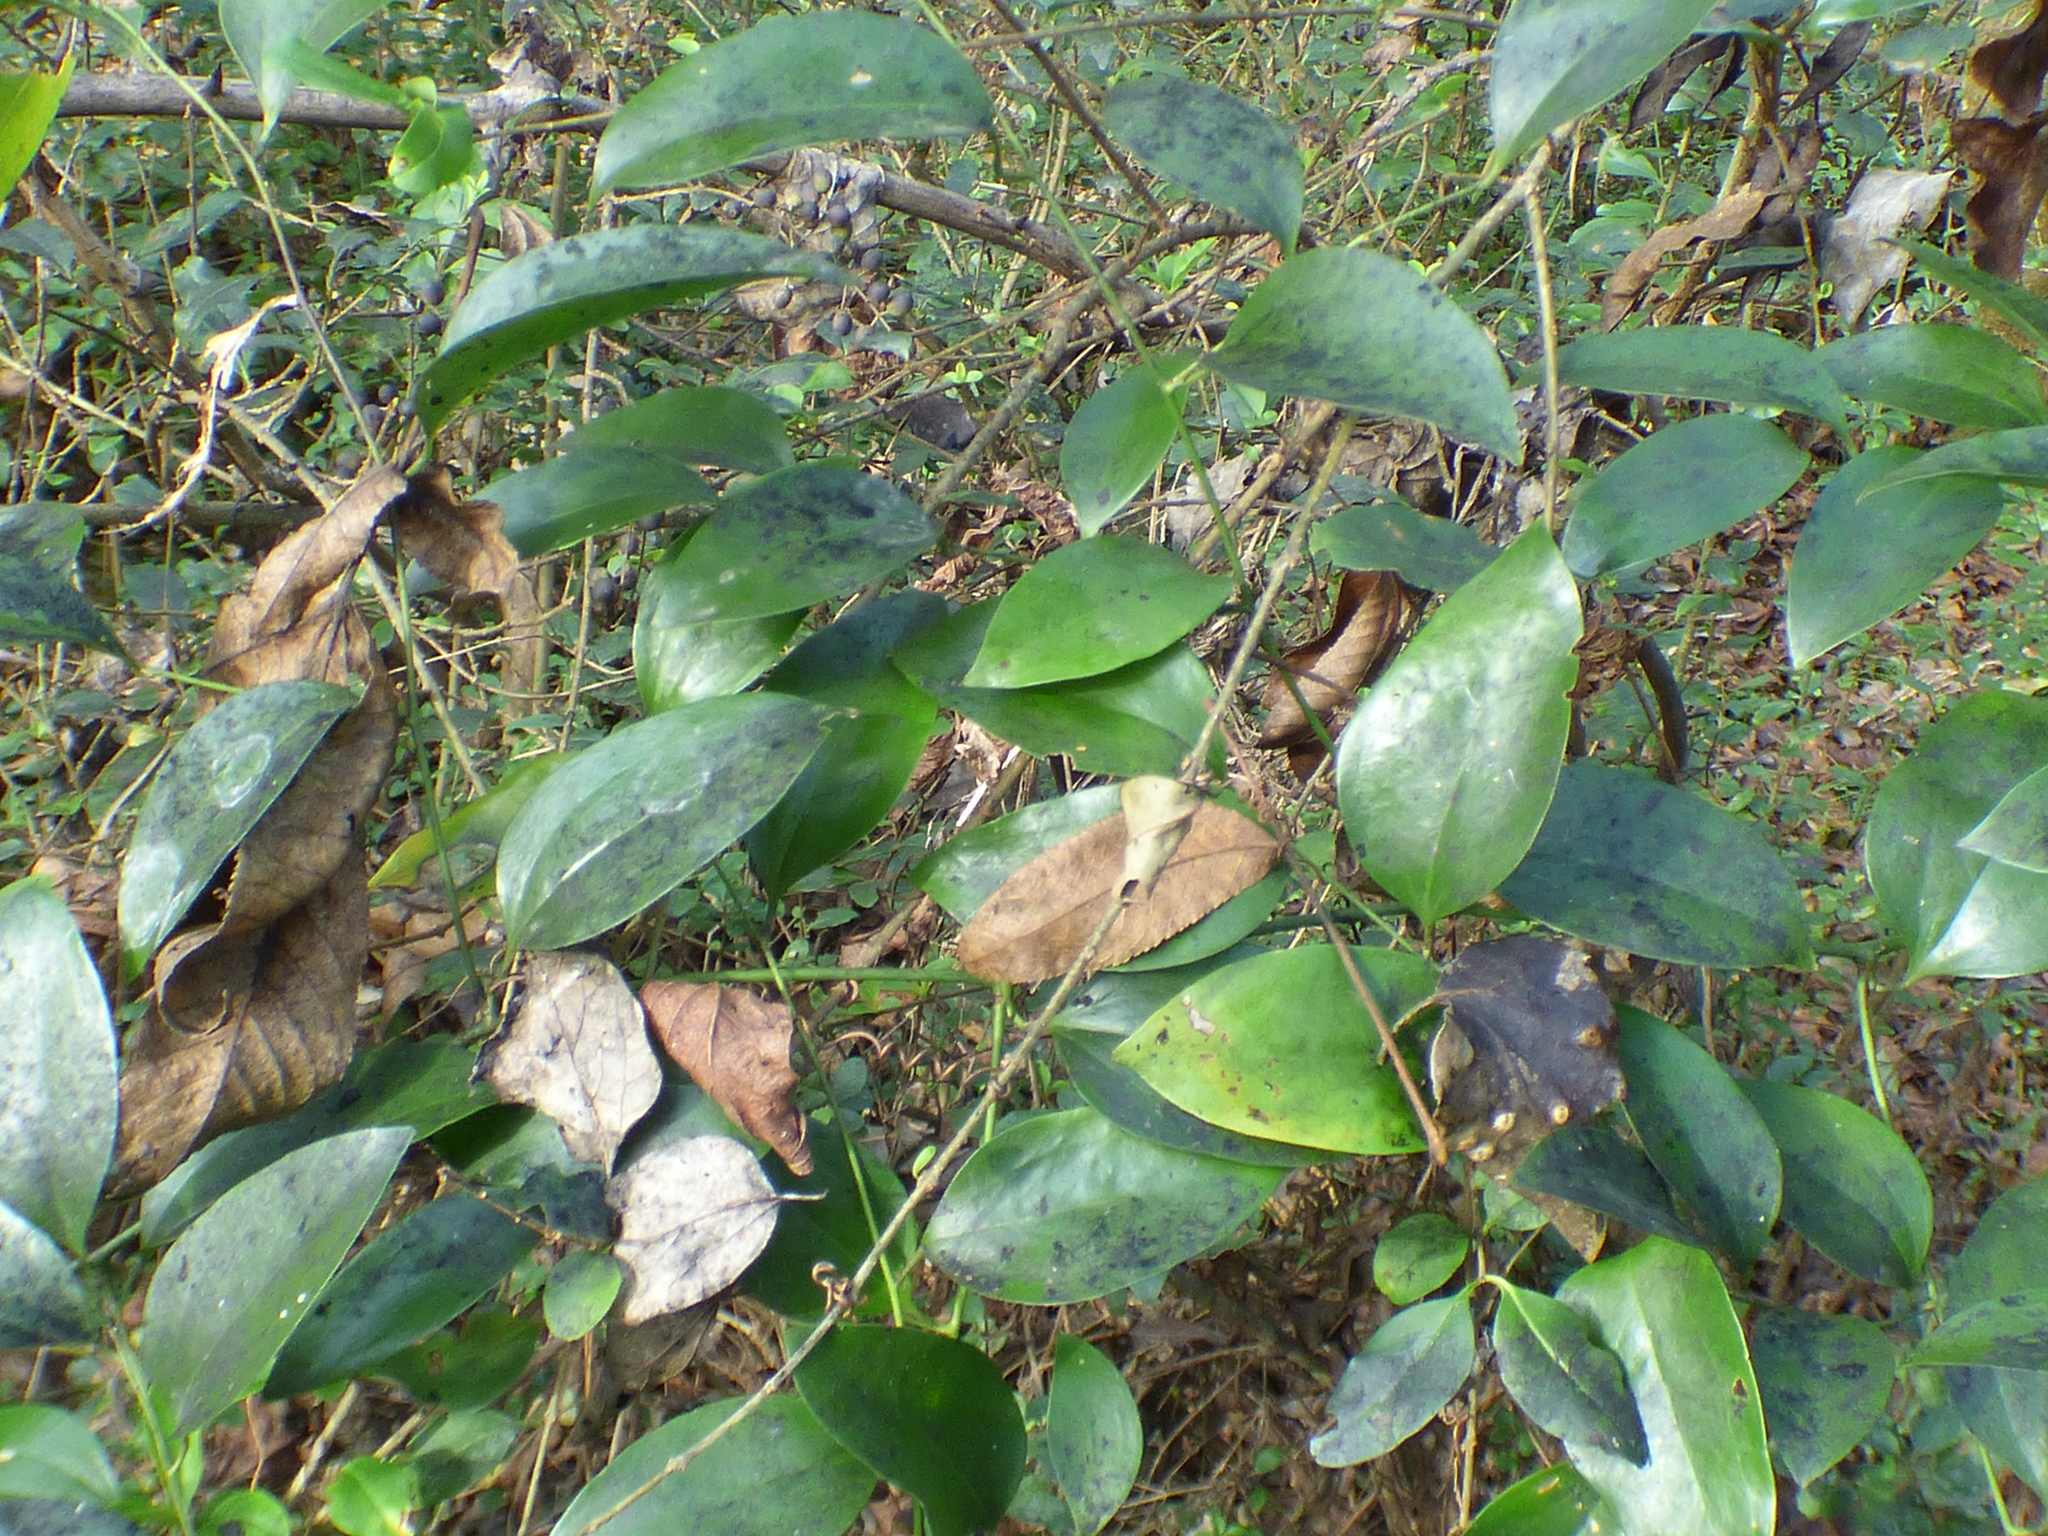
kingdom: Plantae
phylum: Tracheophyta
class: Liliopsida
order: Liliales
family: Smilacaceae
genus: Smilax
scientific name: Smilax maritima
